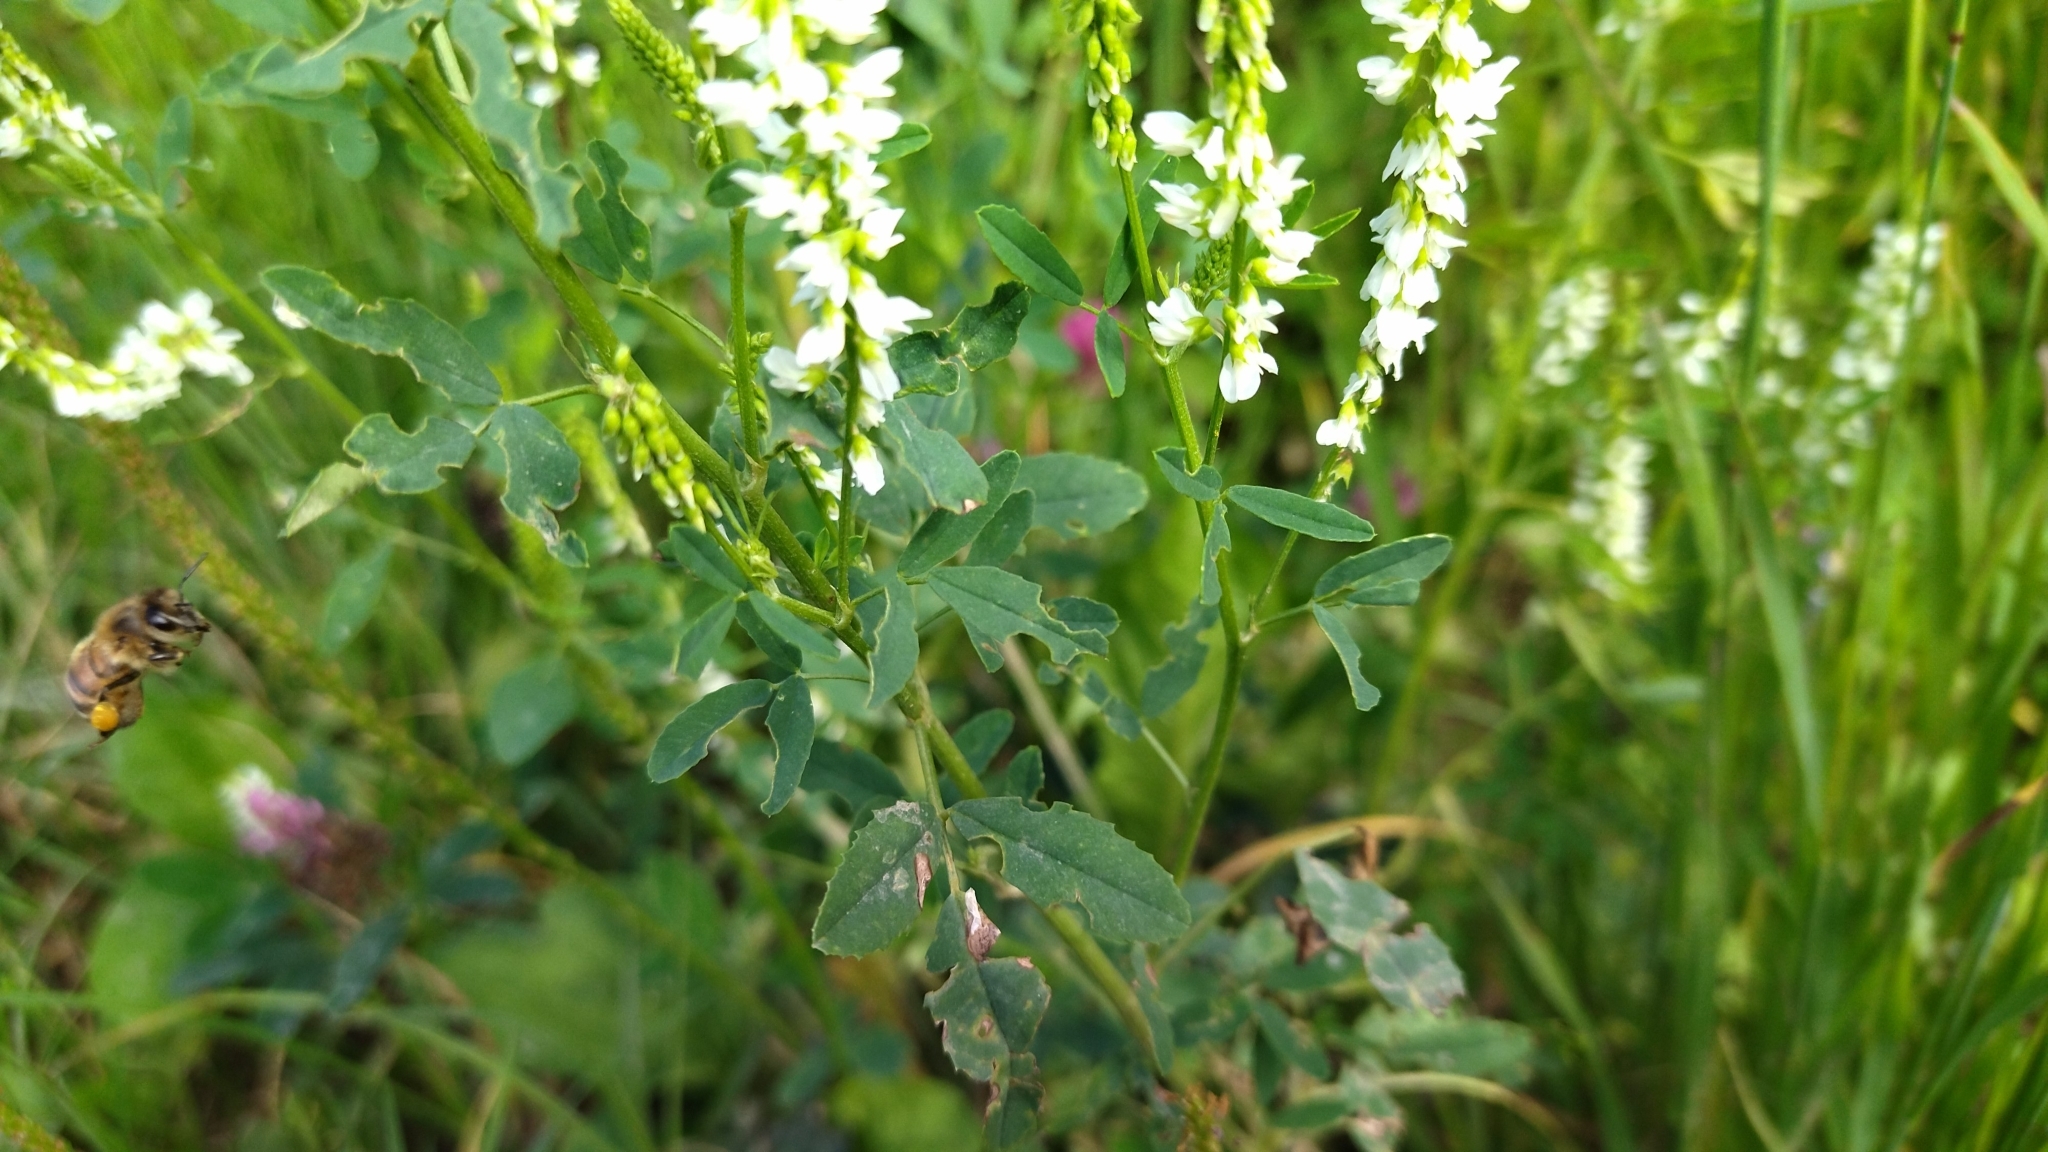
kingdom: Plantae
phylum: Tracheophyta
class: Magnoliopsida
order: Fabales
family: Fabaceae
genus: Melilotus
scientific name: Melilotus albus
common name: White melilot
